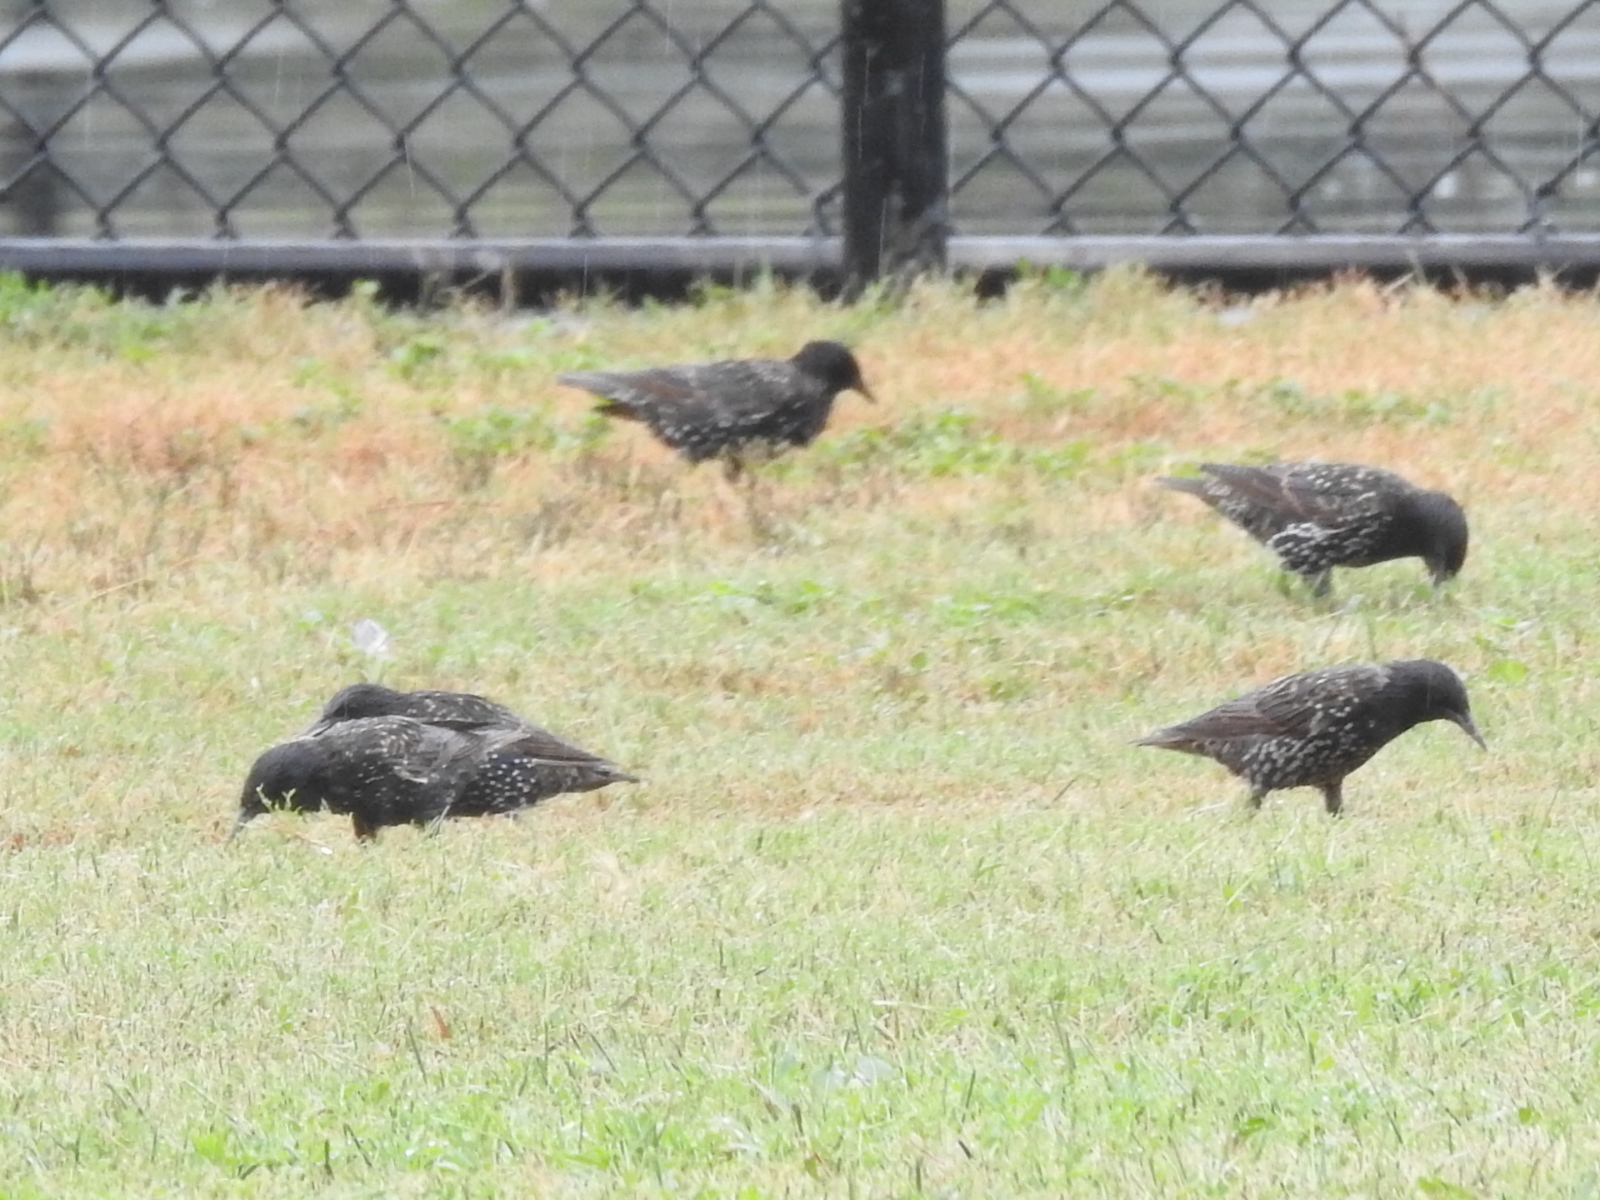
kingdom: Animalia
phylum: Chordata
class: Aves
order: Passeriformes
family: Sturnidae
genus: Sturnus
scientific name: Sturnus vulgaris
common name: Common starling
